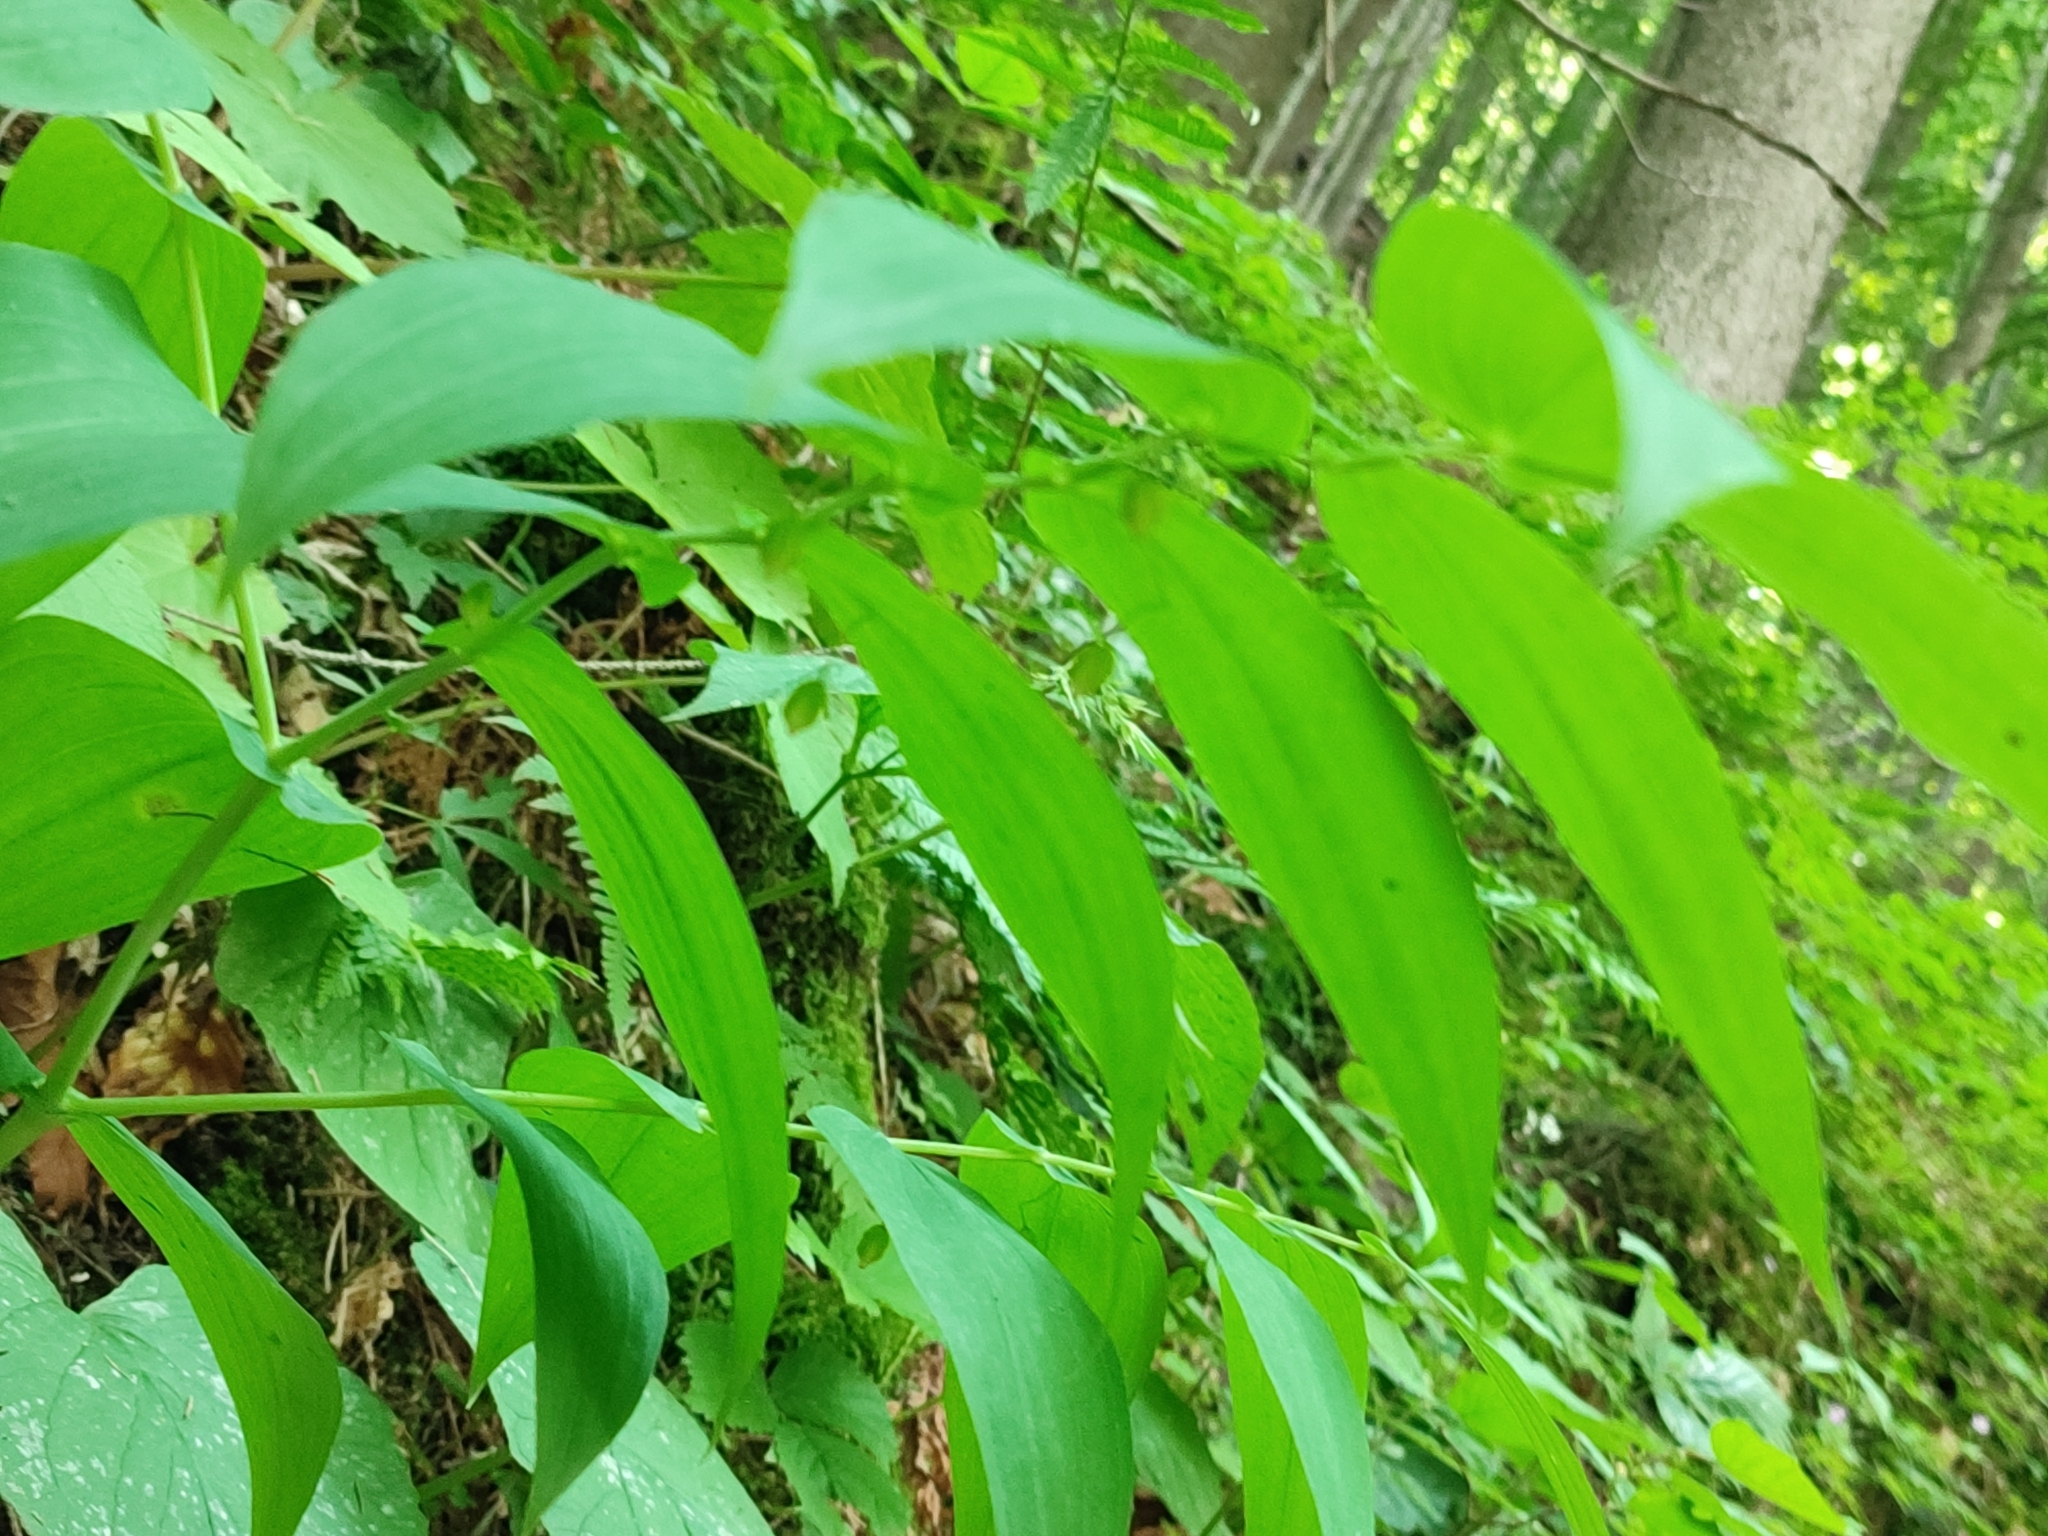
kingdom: Plantae
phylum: Tracheophyta
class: Liliopsida
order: Liliales
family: Liliaceae
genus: Streptopus
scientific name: Streptopus amplexifolius
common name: Clasp twisted stalk
